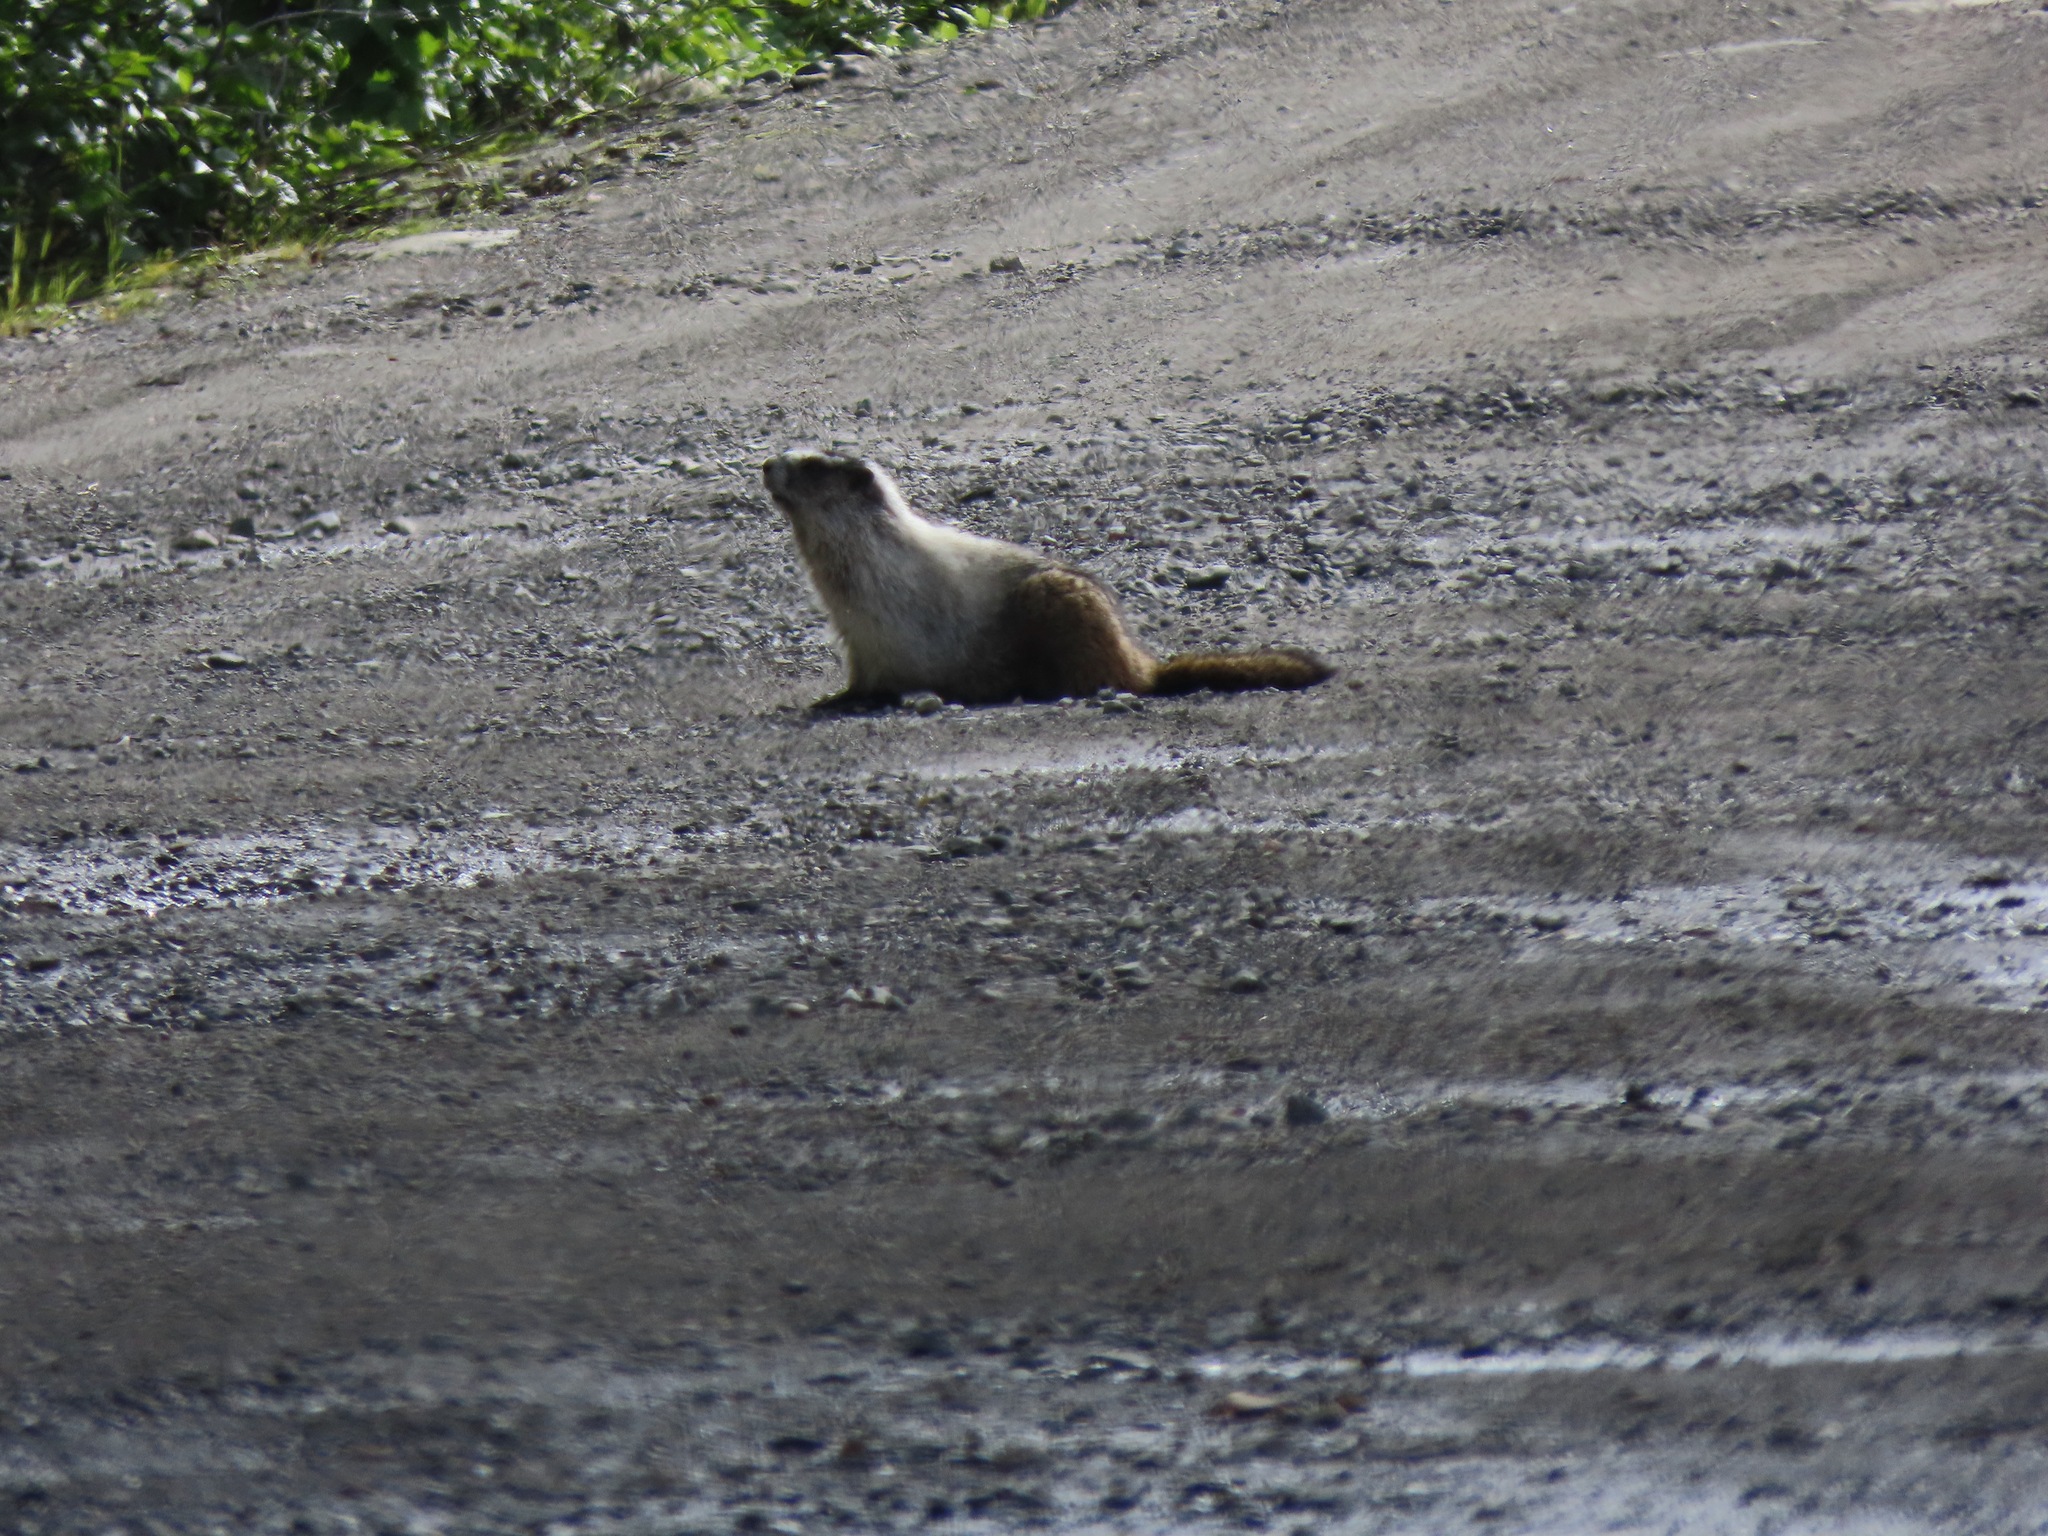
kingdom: Animalia
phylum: Chordata
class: Mammalia
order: Rodentia
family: Sciuridae
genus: Marmota
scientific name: Marmota caligata
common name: Hoary marmot
